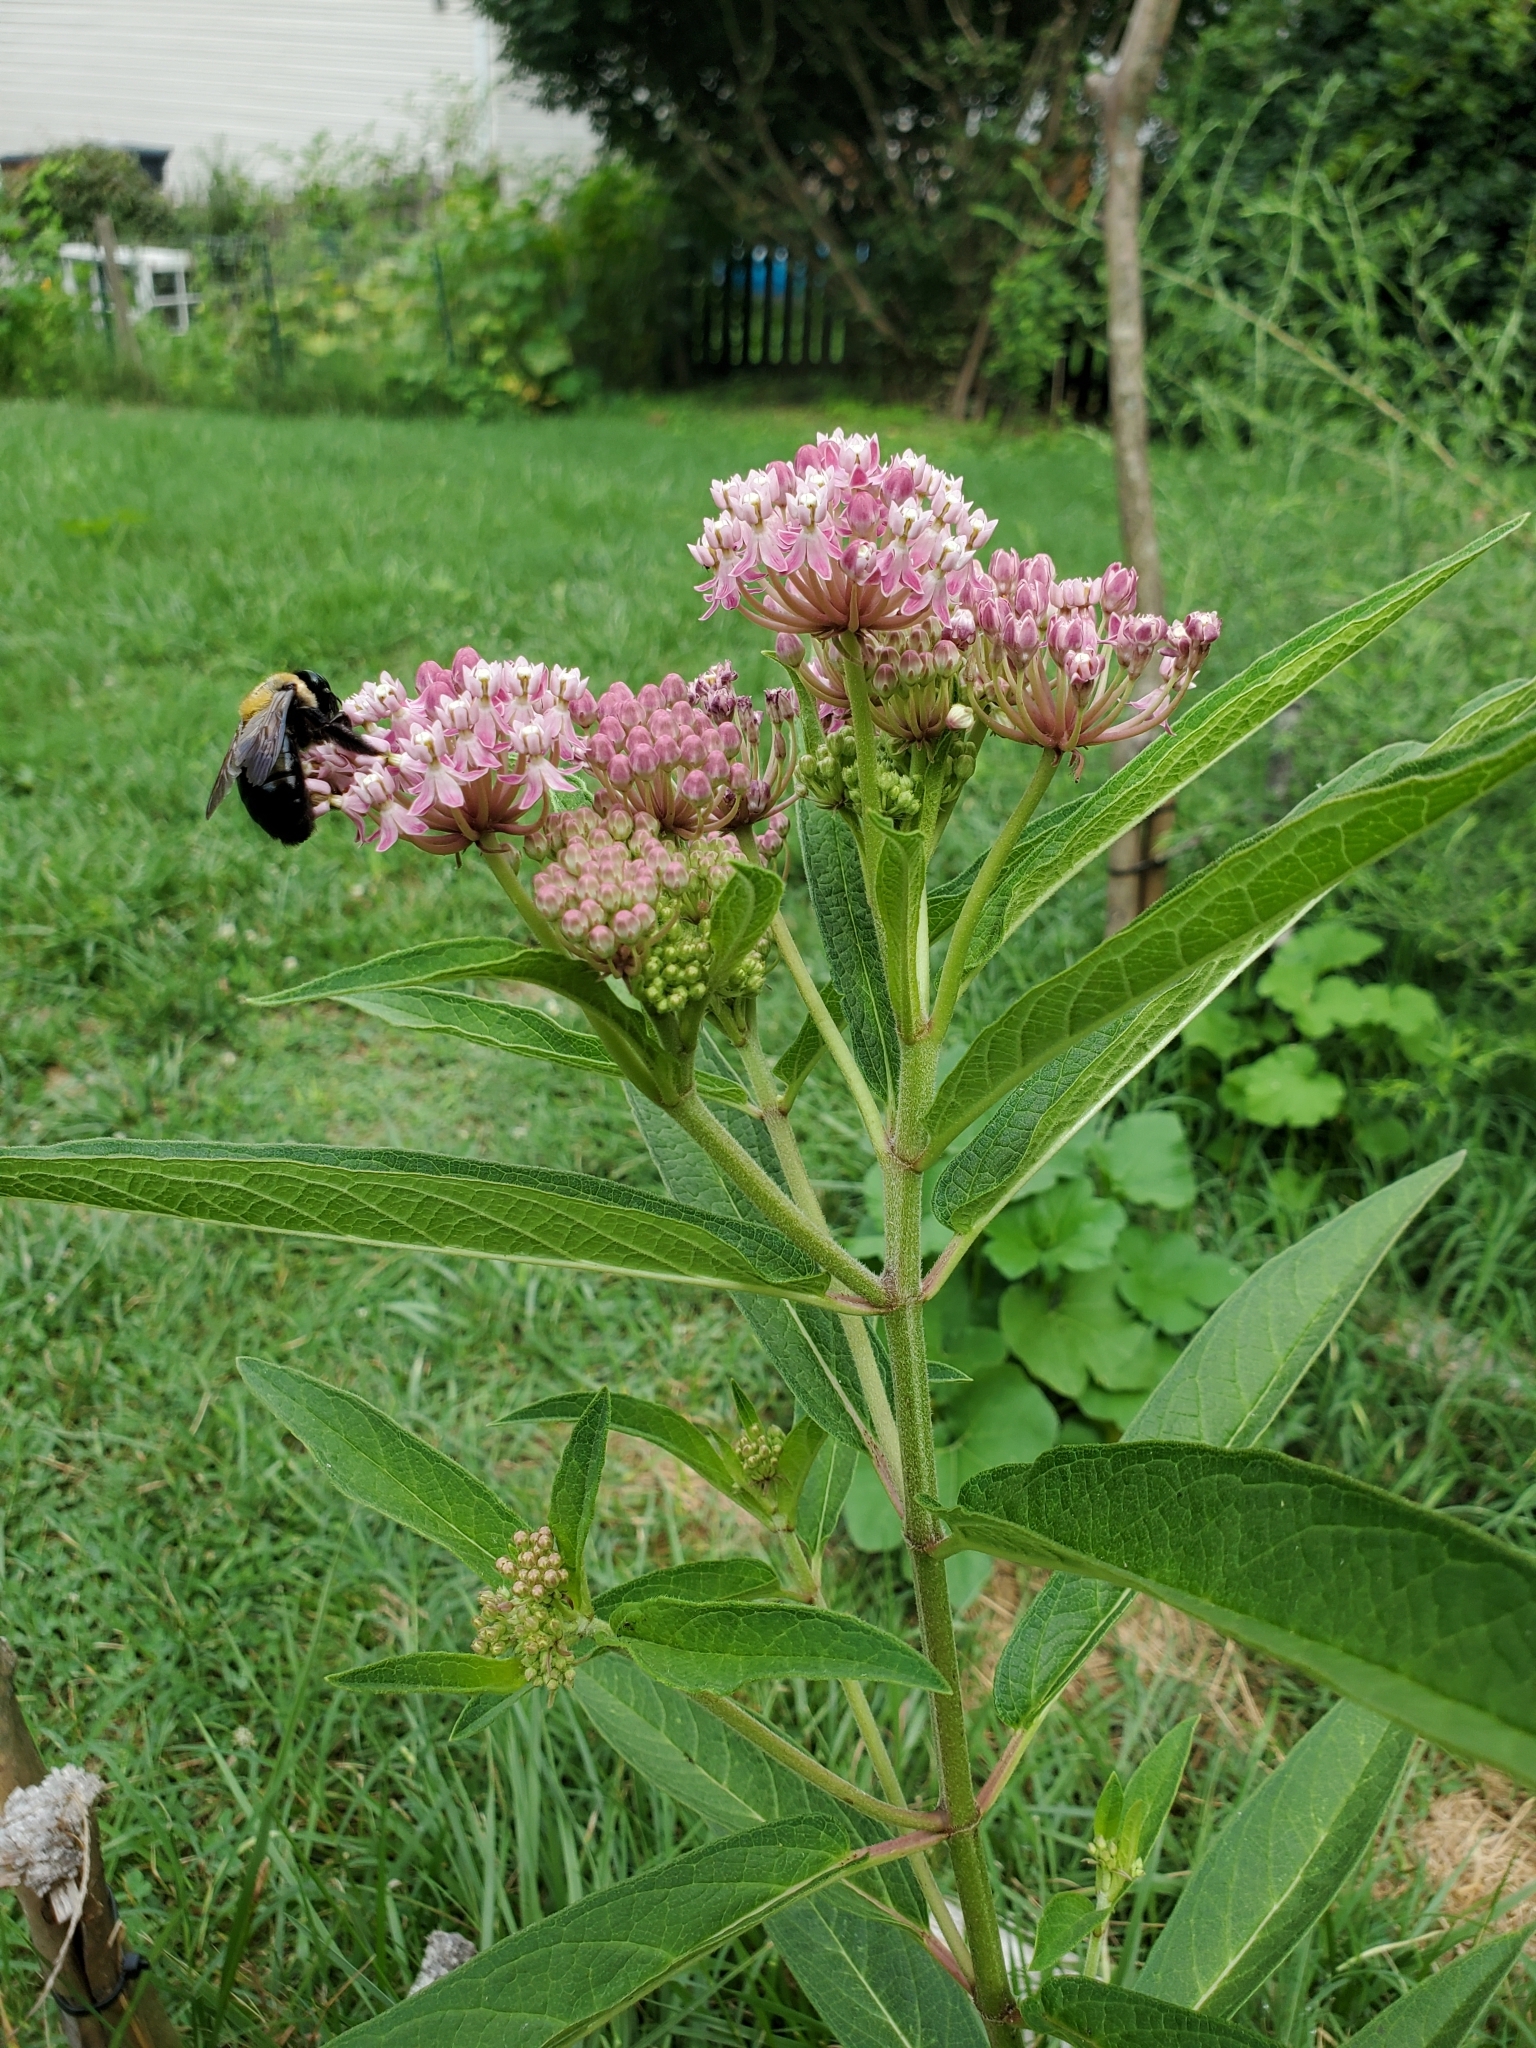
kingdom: Animalia
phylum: Arthropoda
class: Insecta
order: Hymenoptera
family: Apidae
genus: Xylocopa
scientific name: Xylocopa virginica
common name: Carpenter bee
